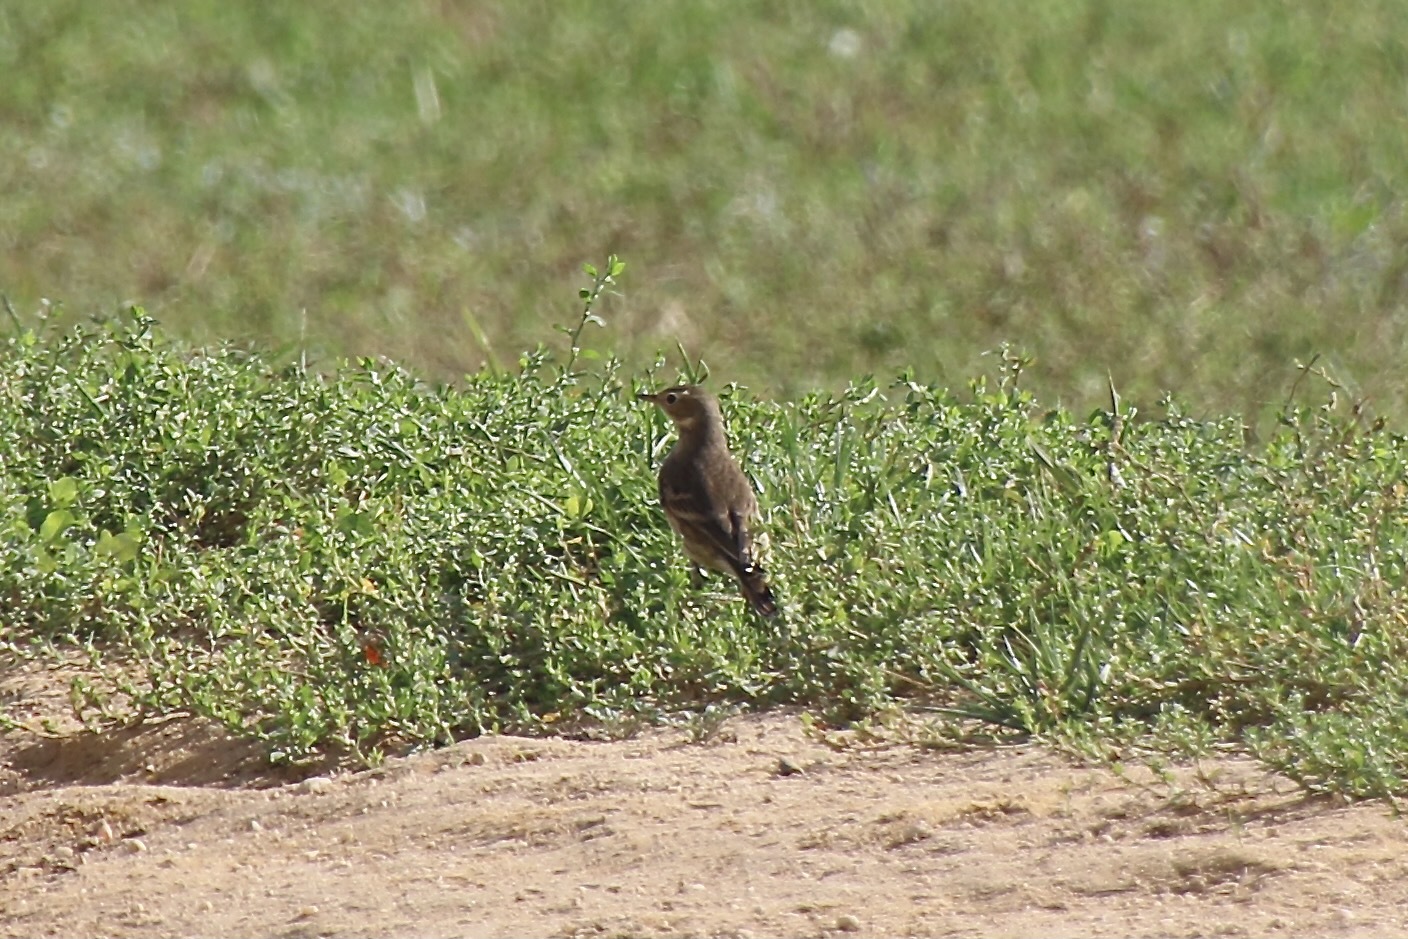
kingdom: Animalia
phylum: Chordata
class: Aves
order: Passeriformes
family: Motacillidae
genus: Anthus
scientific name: Anthus rubescens
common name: Buff-bellied pipit
